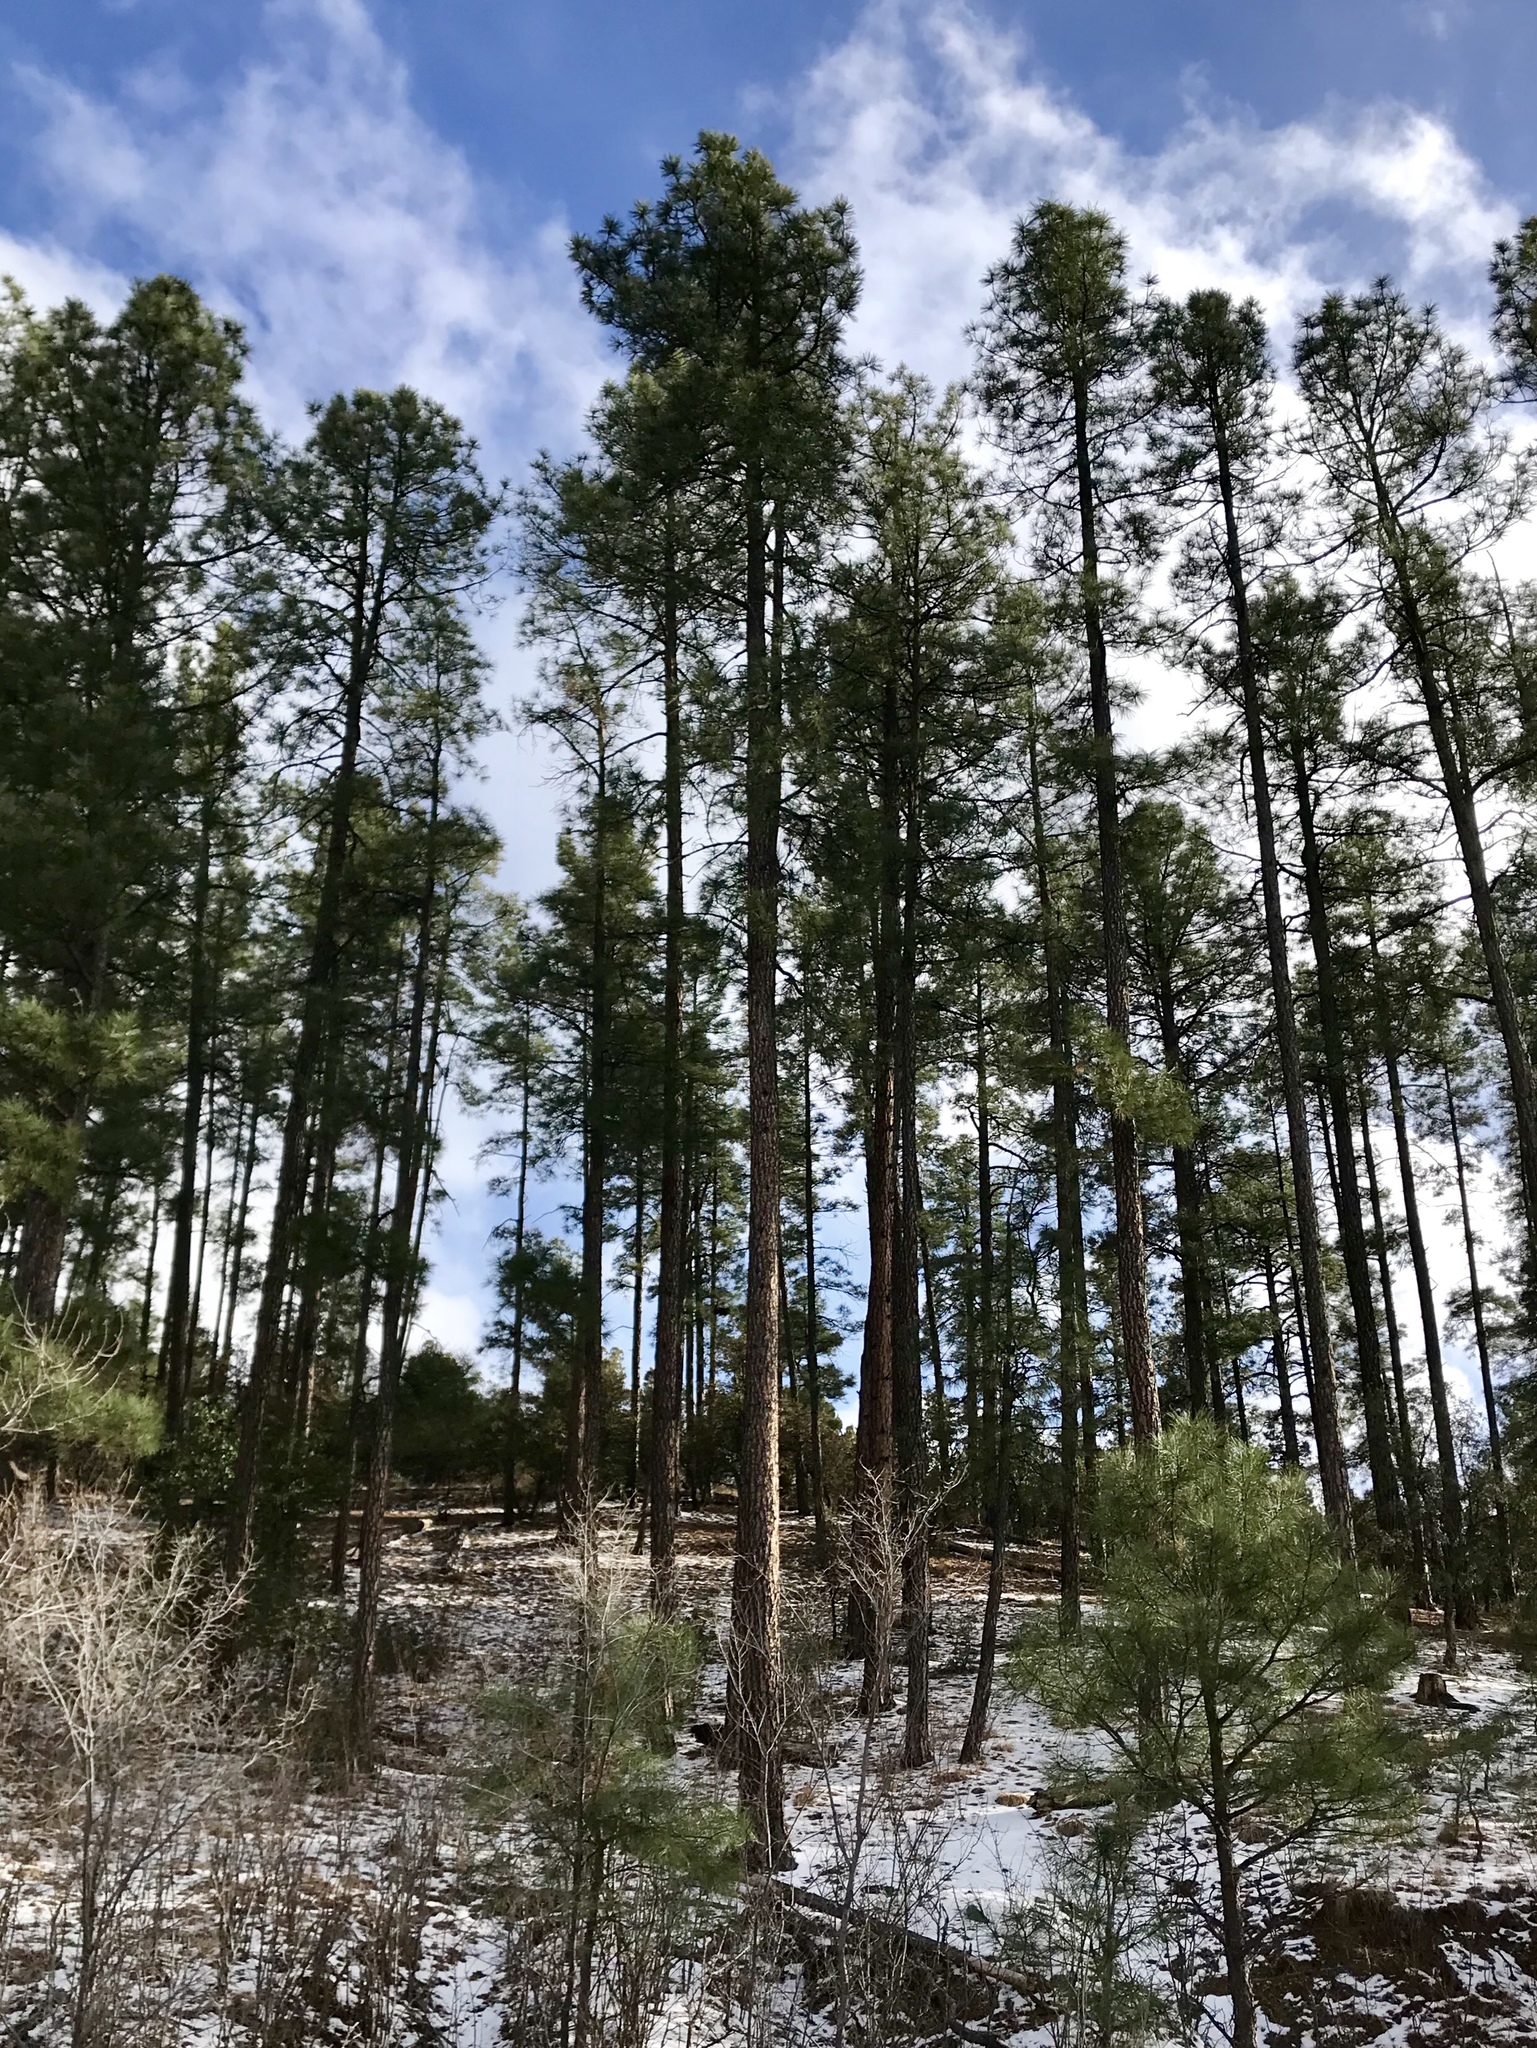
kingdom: Plantae
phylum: Tracheophyta
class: Pinopsida
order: Pinales
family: Pinaceae
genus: Pinus
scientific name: Pinus ponderosa
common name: Western yellow-pine
